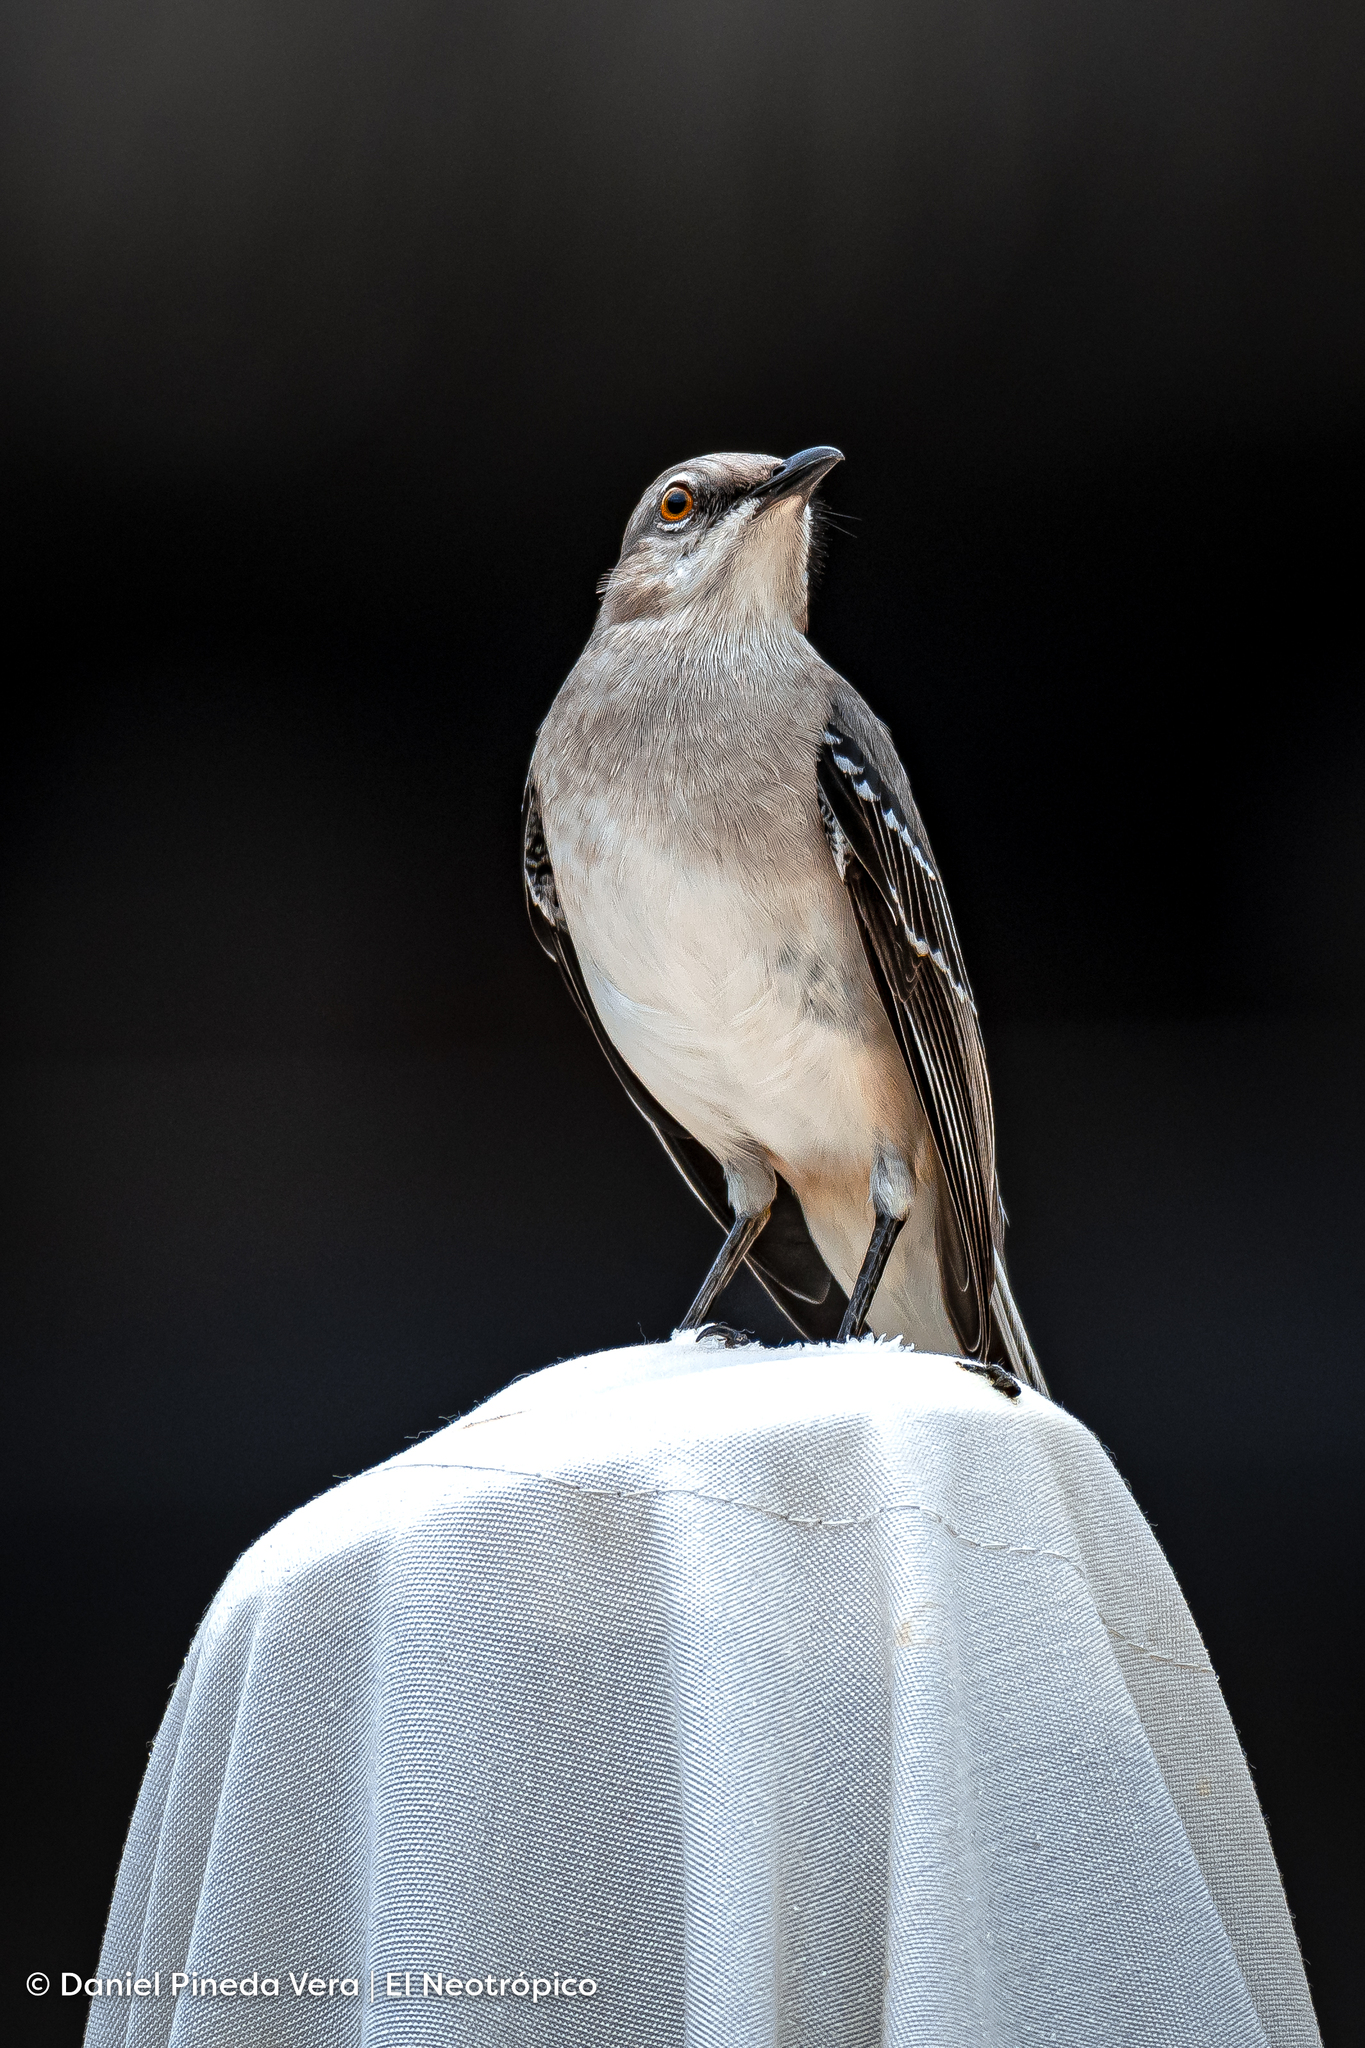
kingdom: Animalia
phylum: Chordata
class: Aves
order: Passeriformes
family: Mimidae
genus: Mimus
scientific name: Mimus gilvus
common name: Tropical mockingbird
